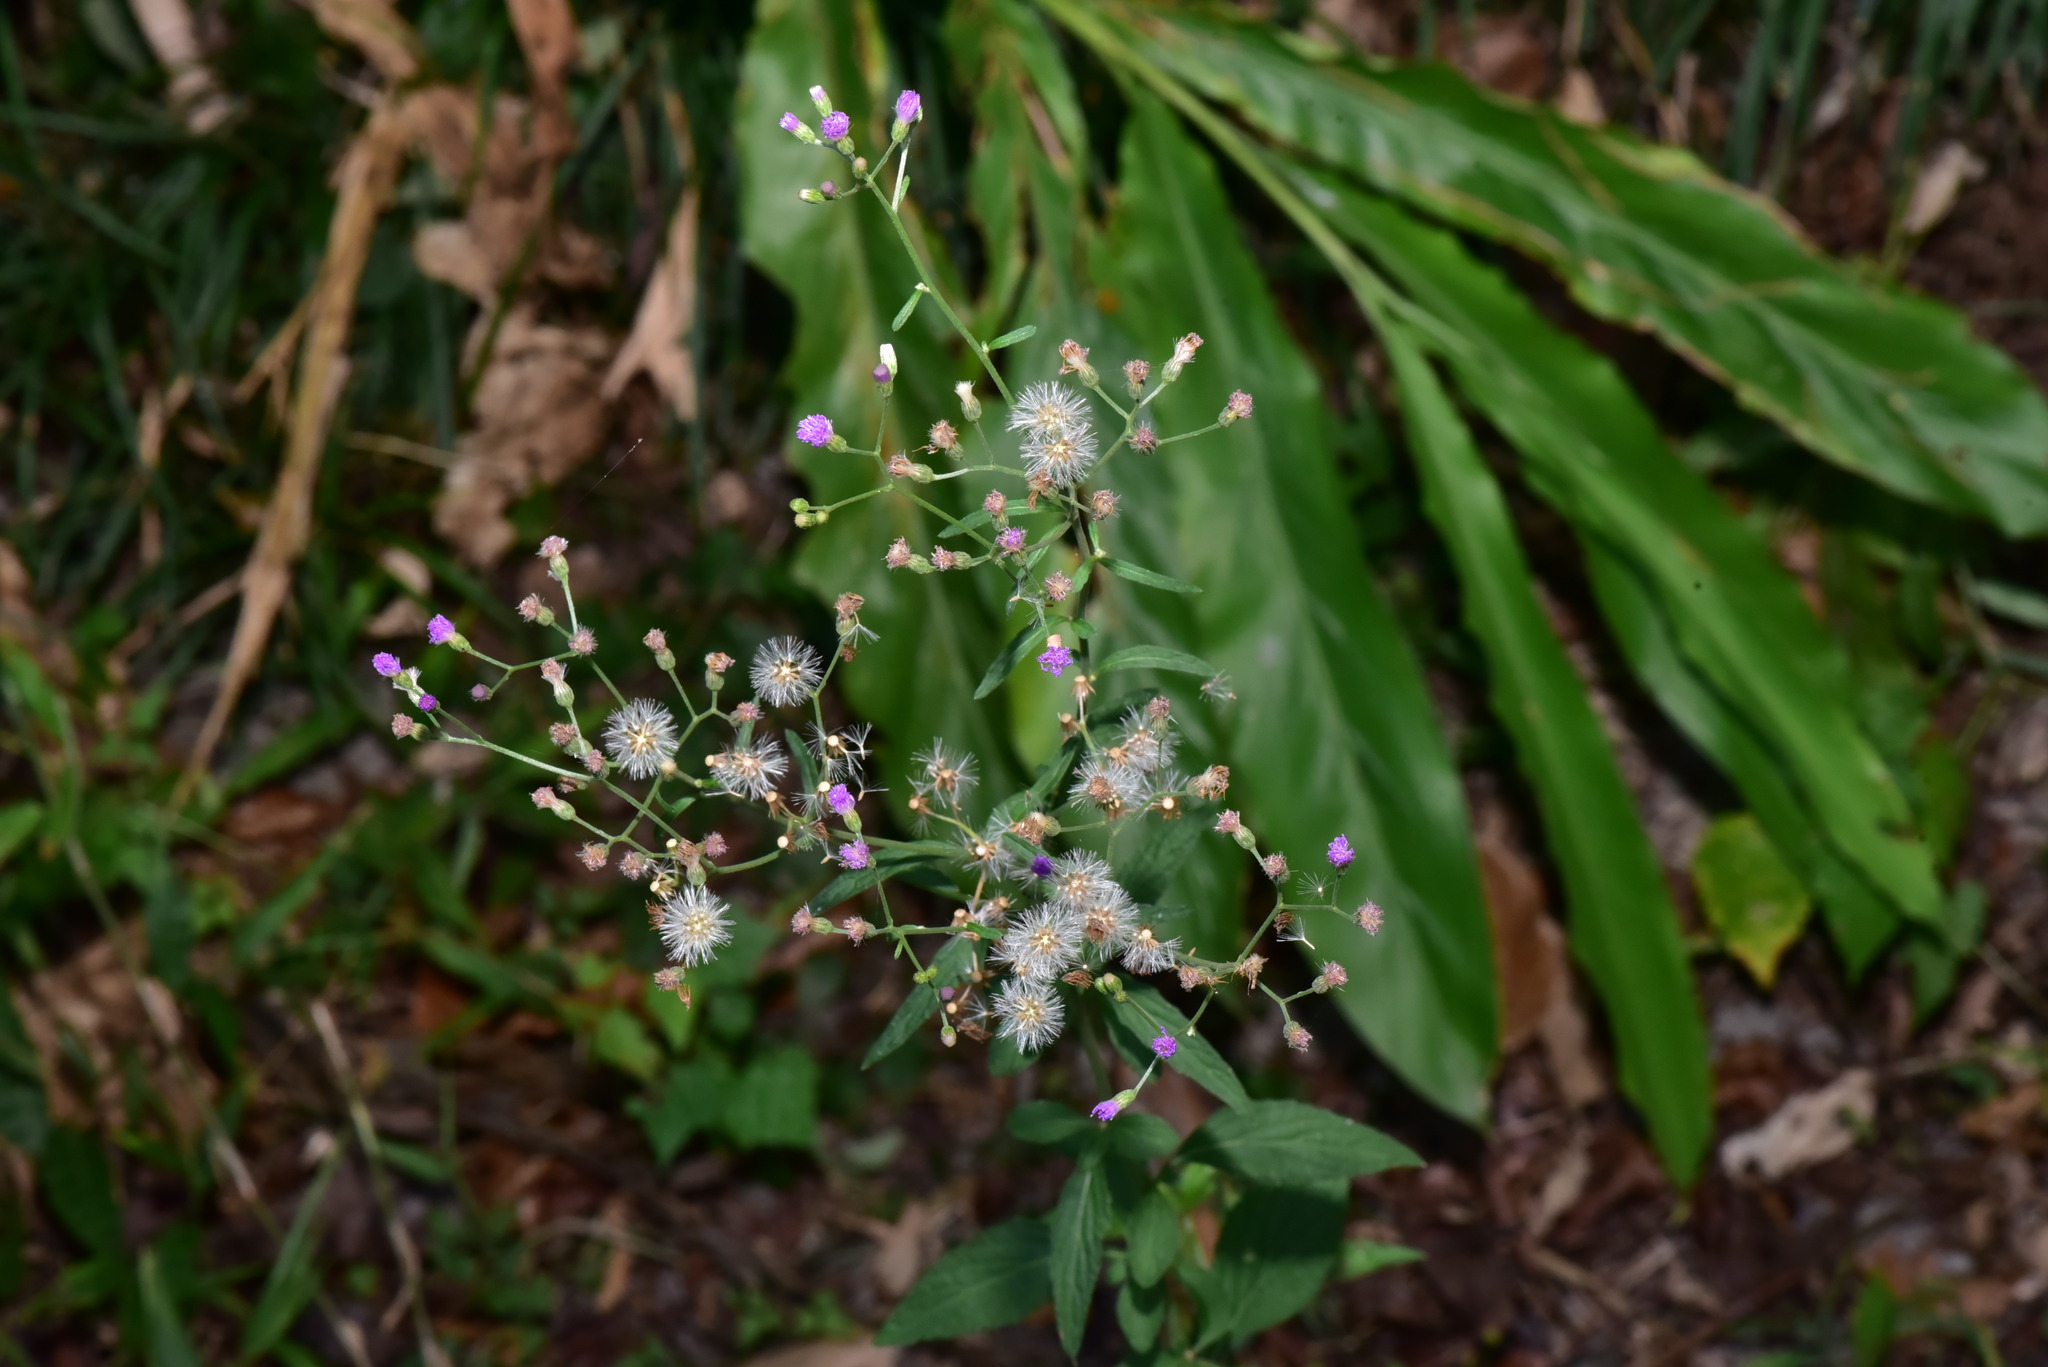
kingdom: Plantae
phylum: Tracheophyta
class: Magnoliopsida
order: Asterales
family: Asteraceae
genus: Cyanthillium
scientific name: Cyanthillium cinereum
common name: Little ironweed
